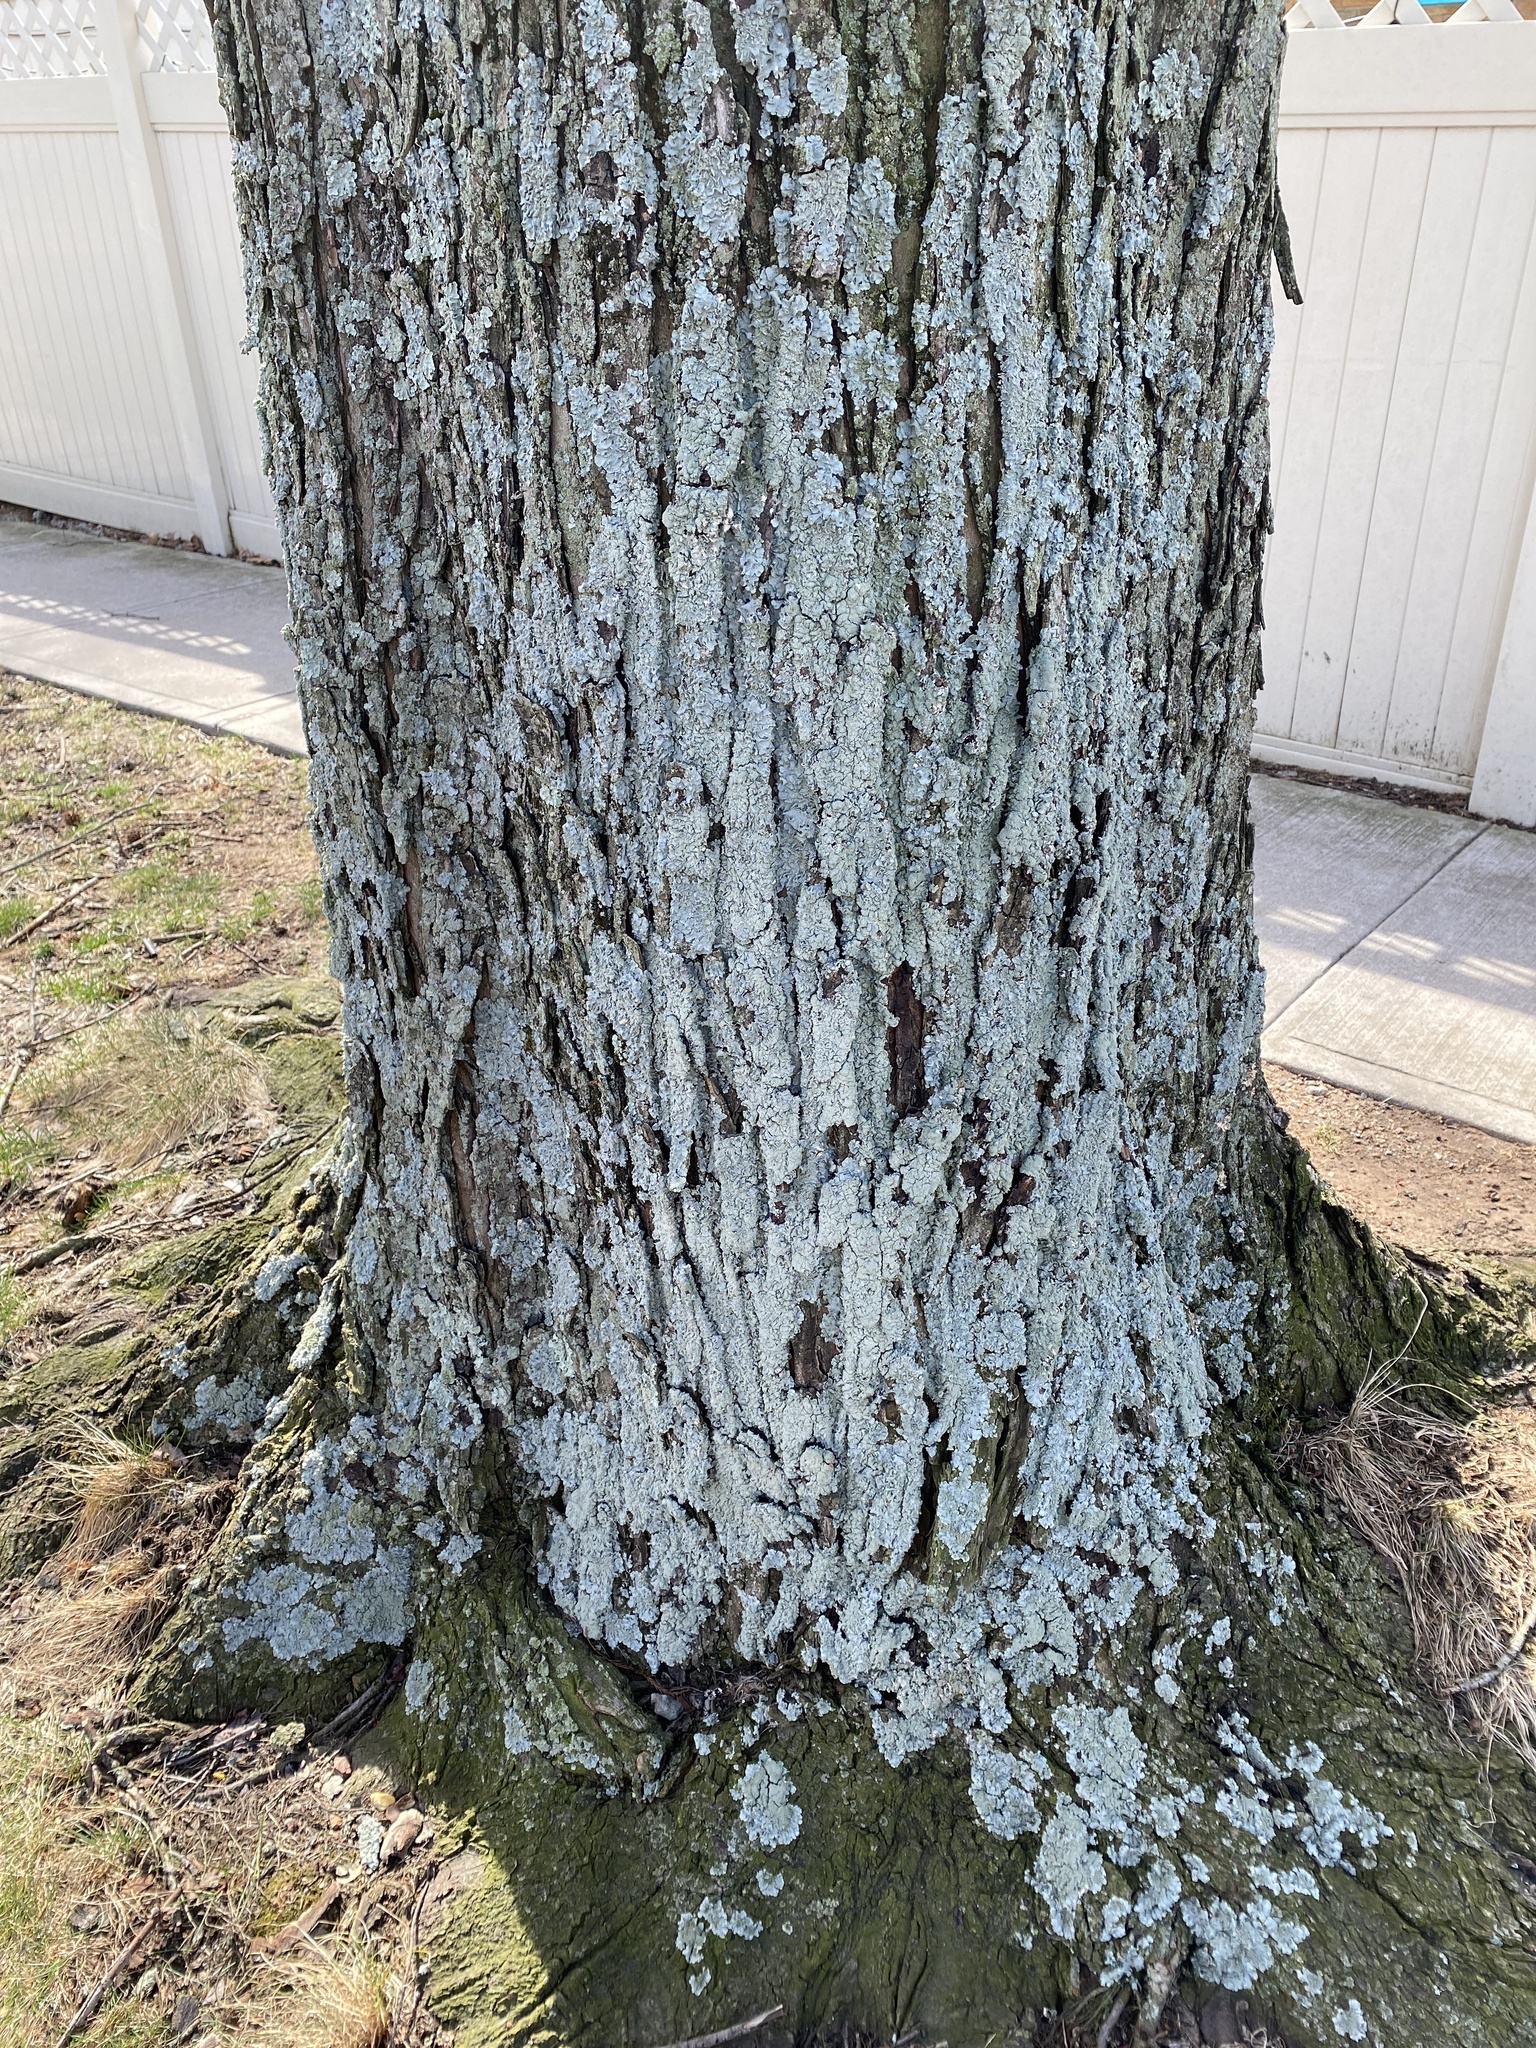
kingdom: Fungi
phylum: Ascomycota
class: Lecanoromycetes
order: Lecanorales
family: Parmeliaceae
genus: Punctelia
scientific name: Punctelia missouriensis
